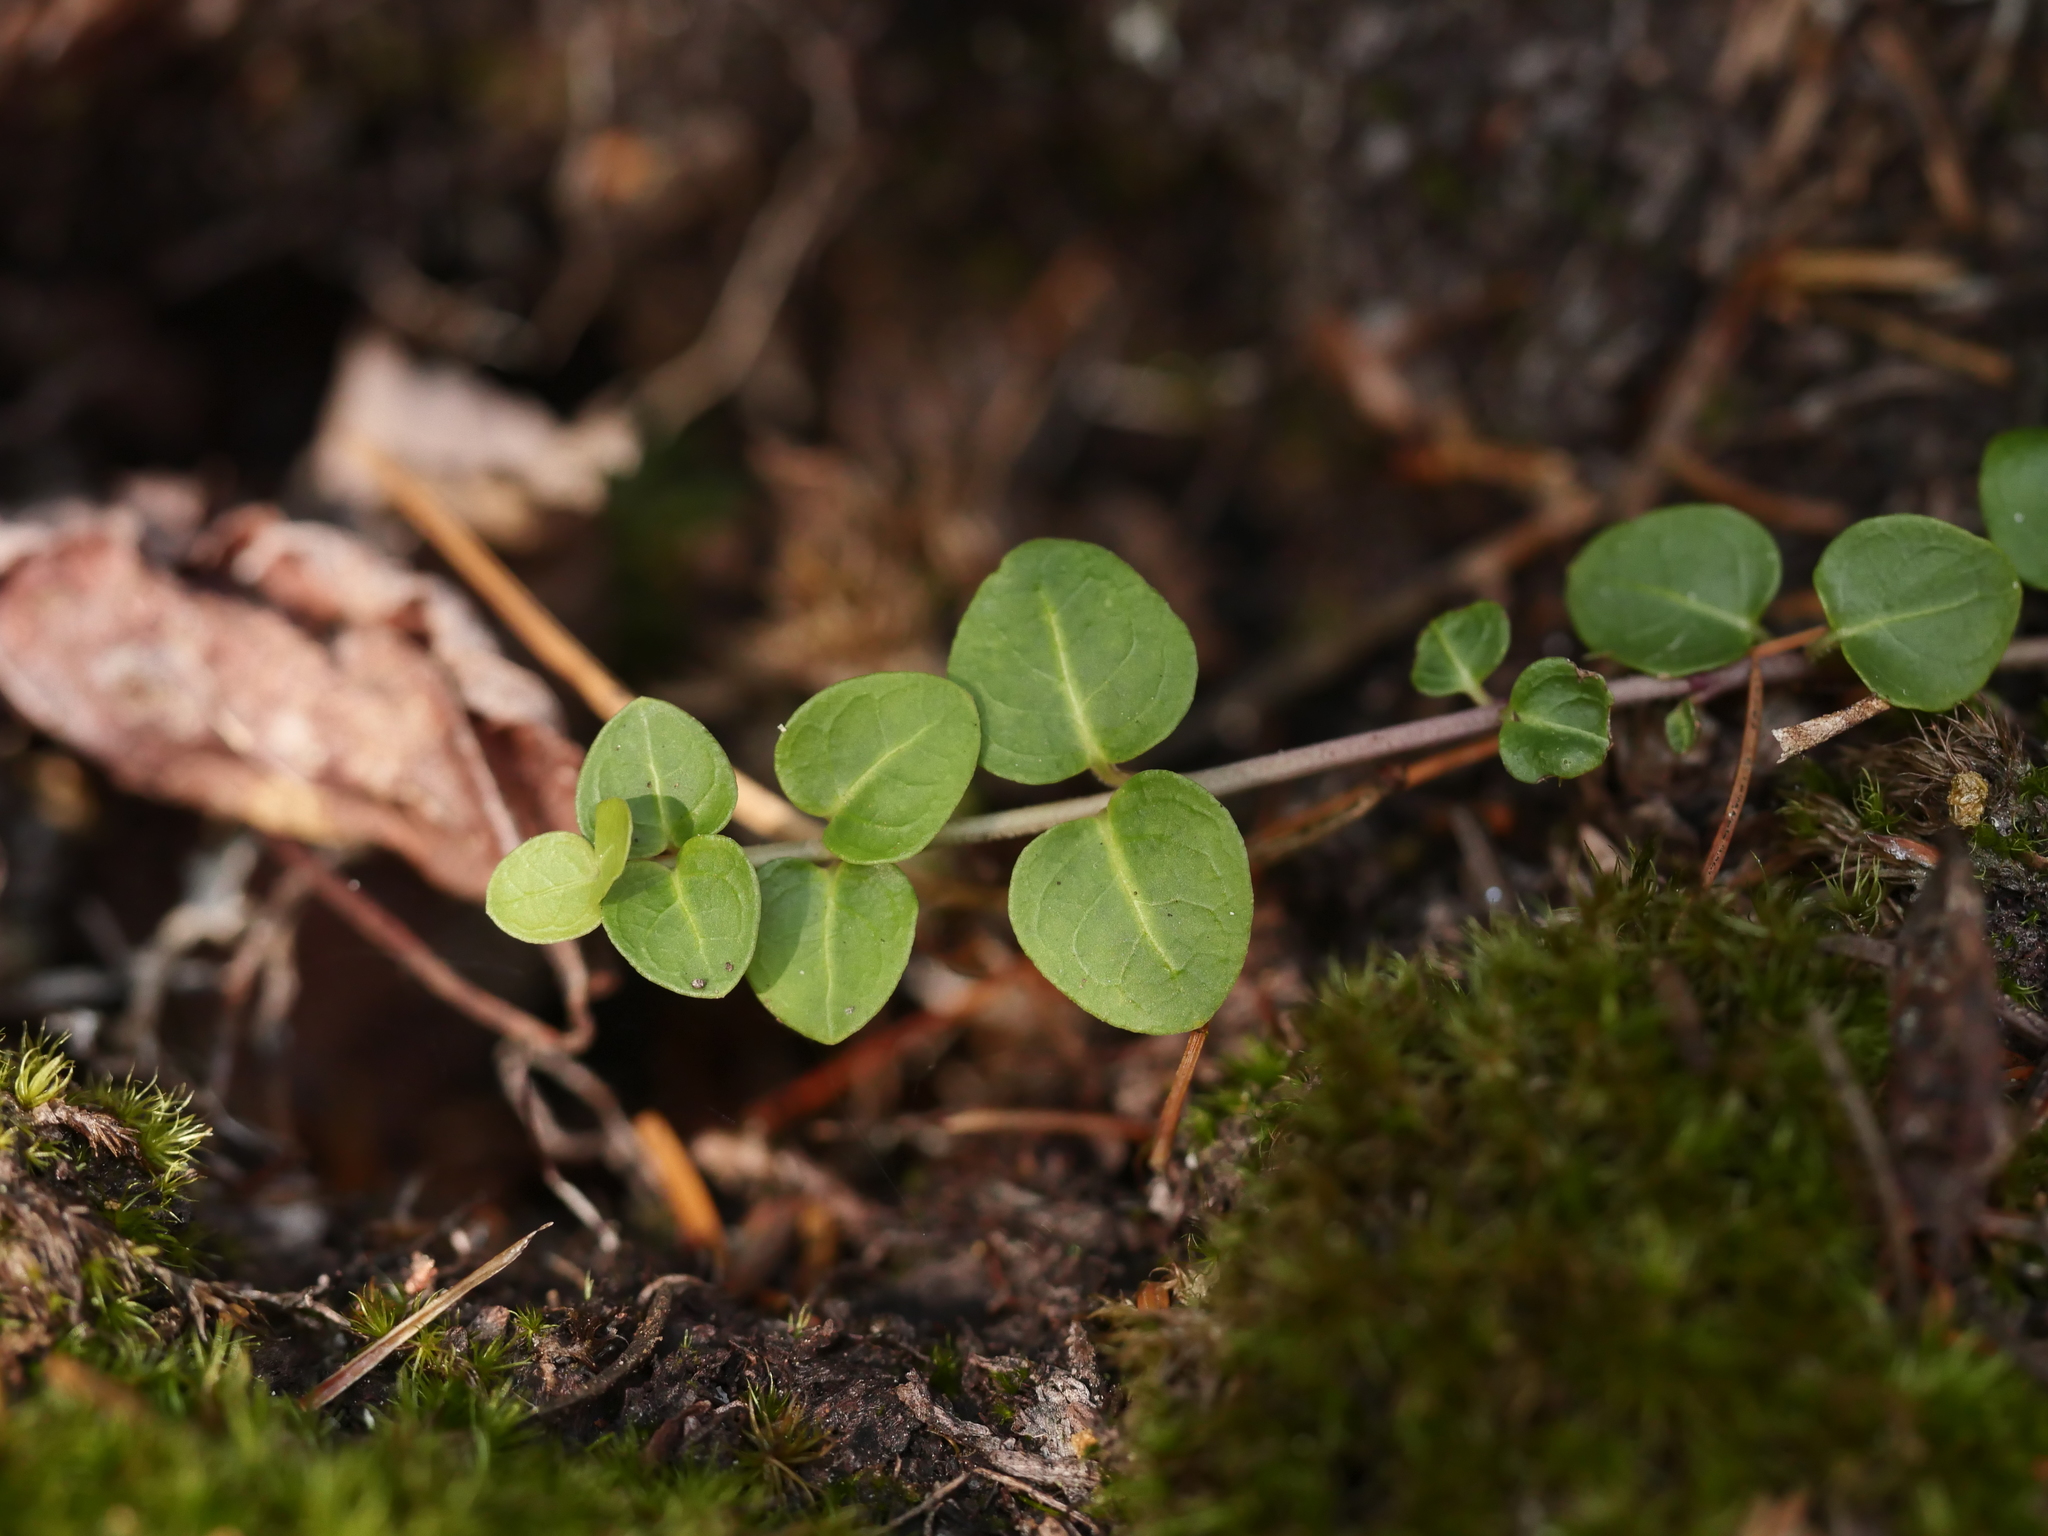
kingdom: Plantae
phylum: Tracheophyta
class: Magnoliopsida
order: Gentianales
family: Rubiaceae
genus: Mitchella
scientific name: Mitchella repens
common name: Partridge-berry
